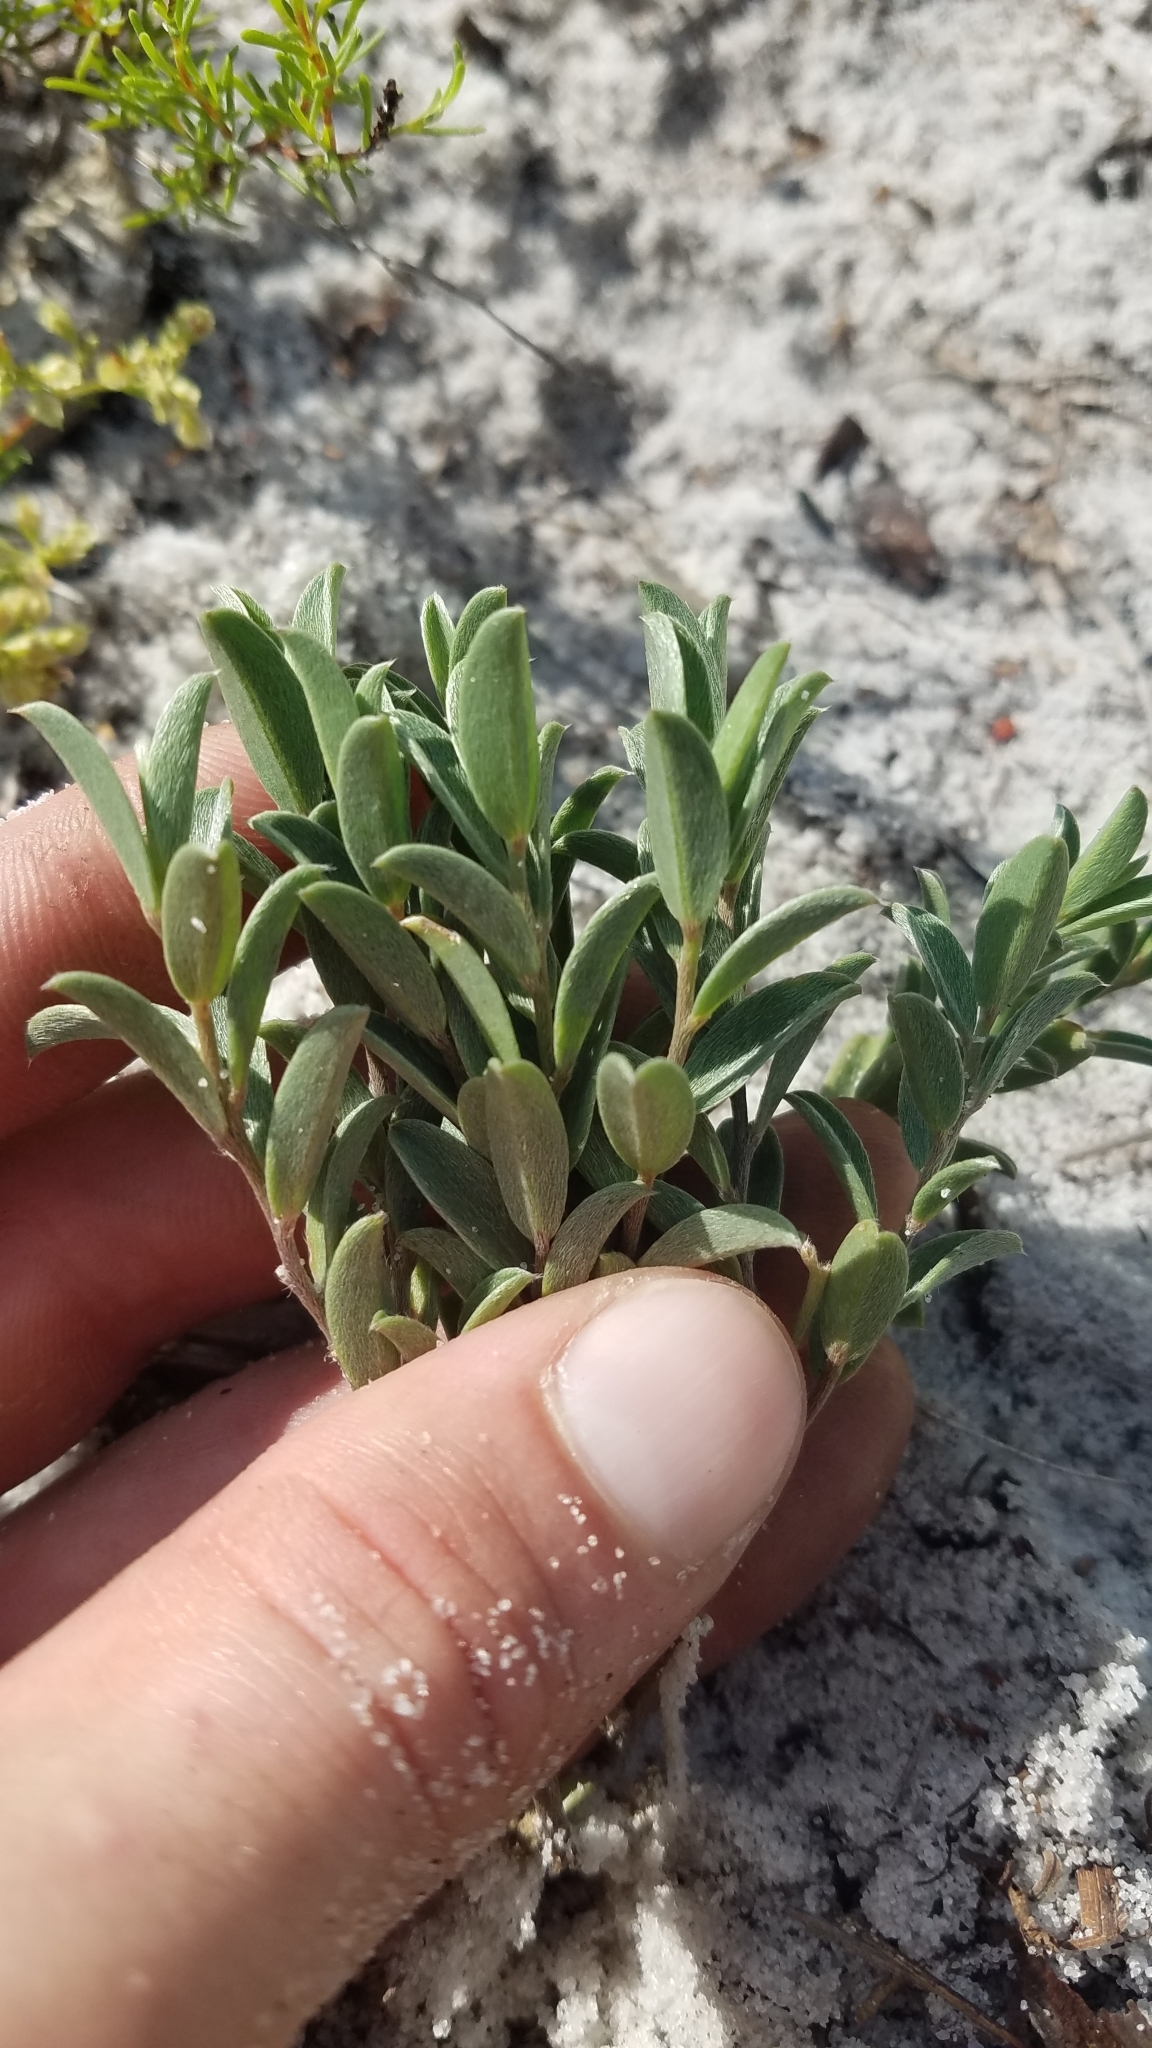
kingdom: Plantae
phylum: Tracheophyta
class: Magnoliopsida
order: Fabales
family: Fabaceae
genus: Crotalaria
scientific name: Crotalaria avonensis
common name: Avon park harebells
